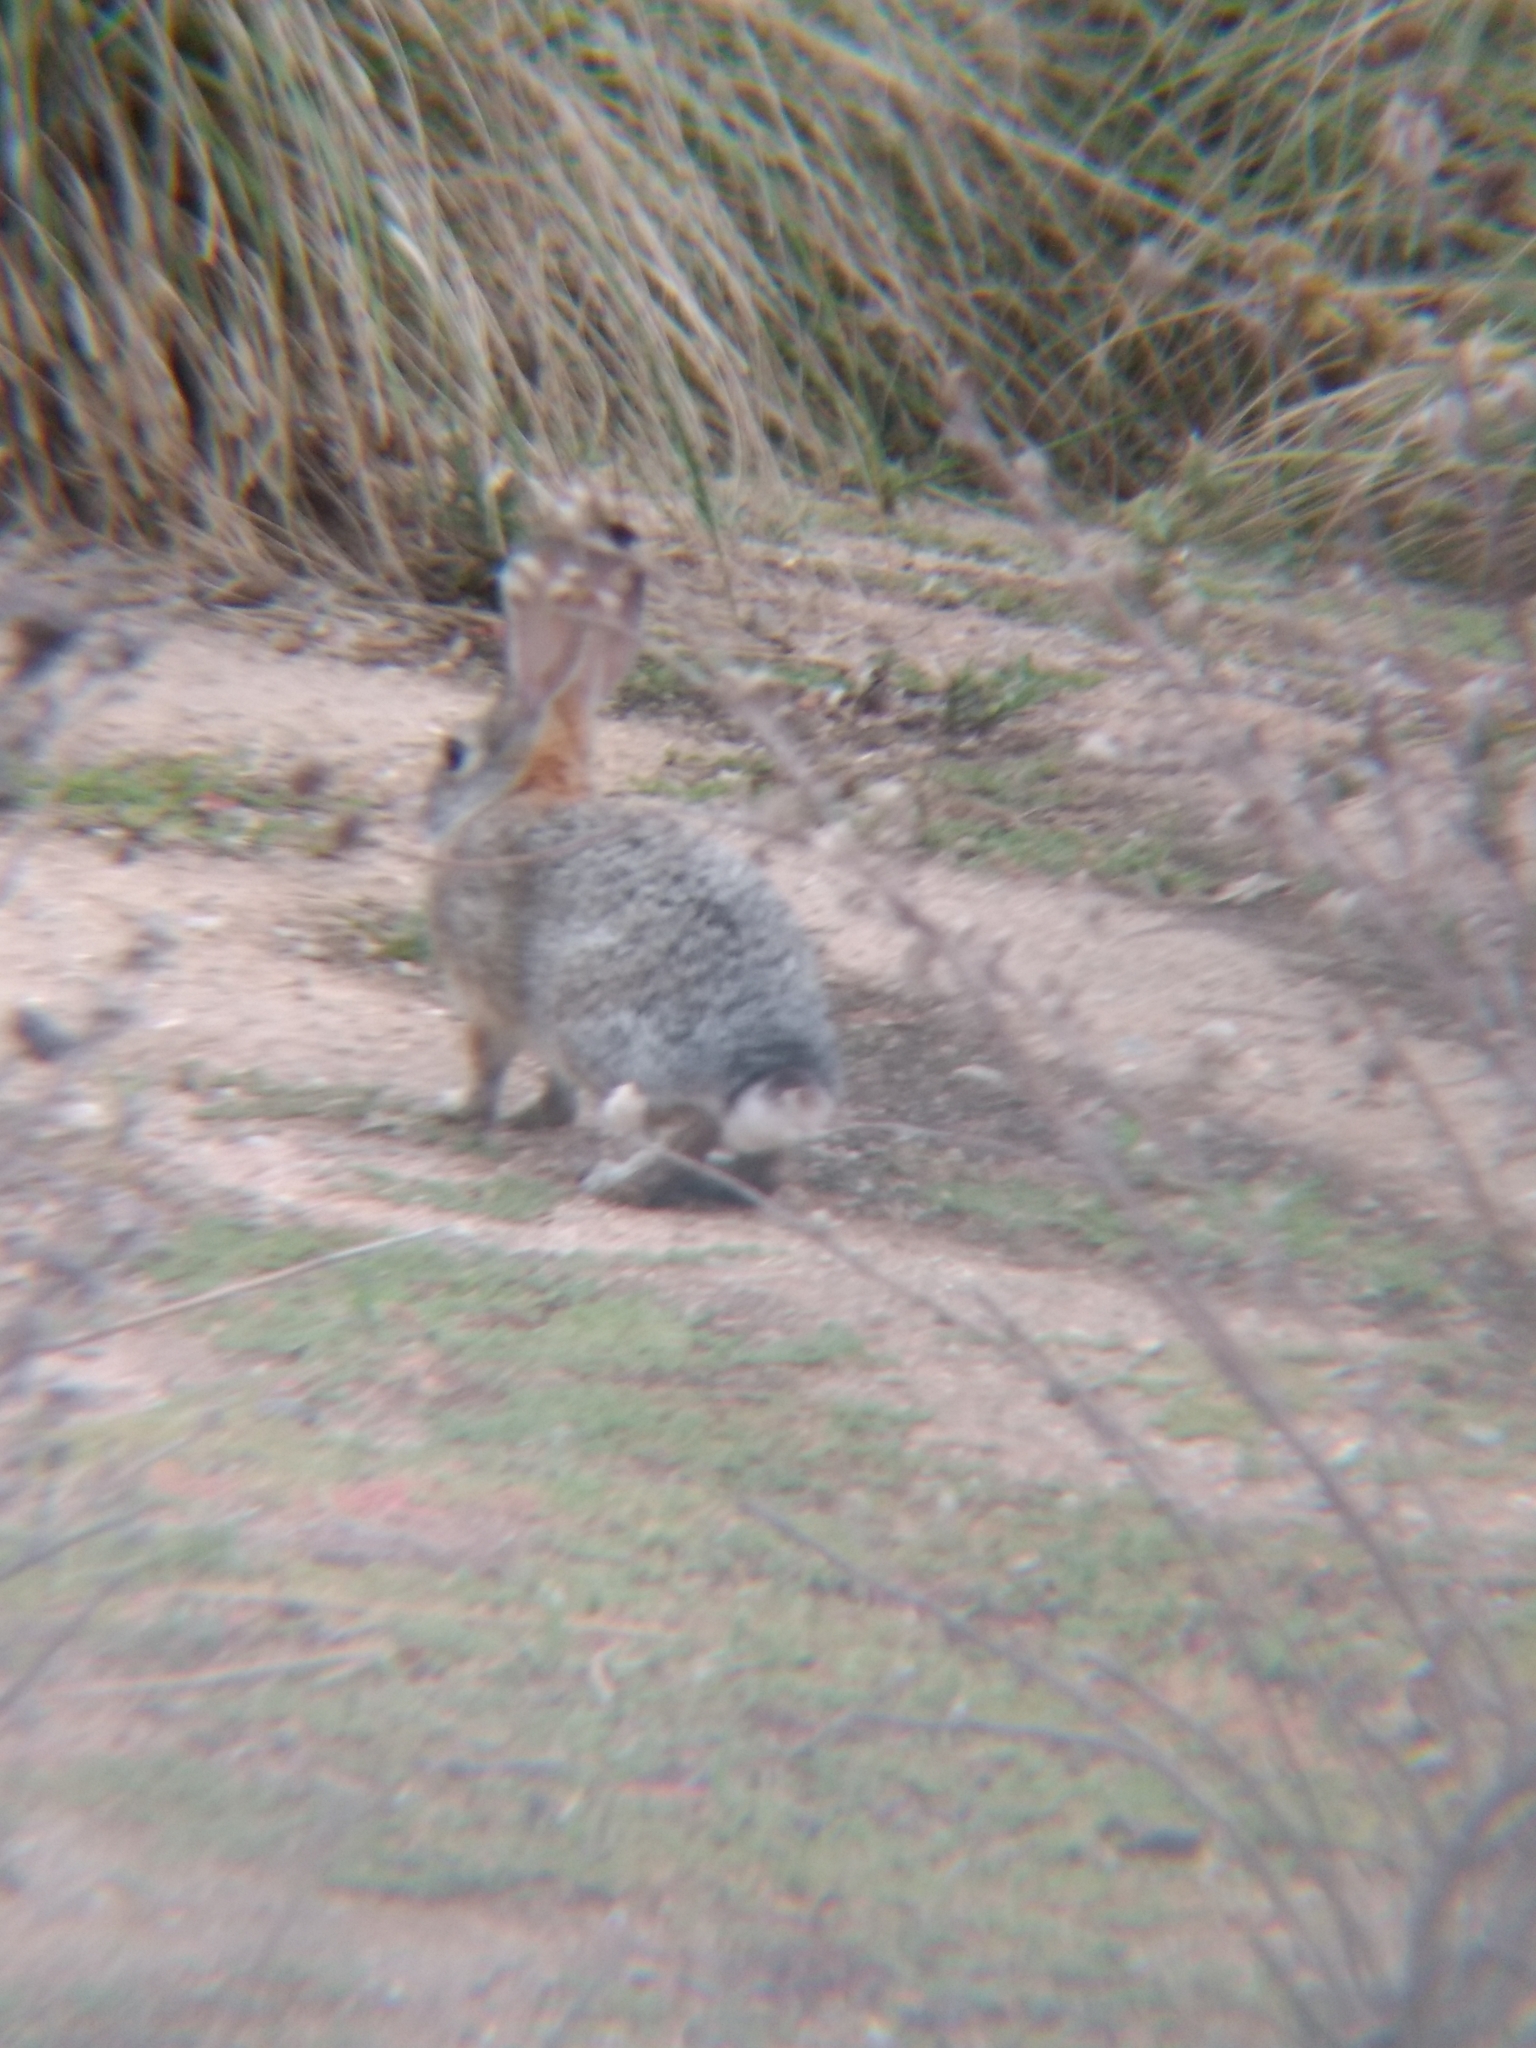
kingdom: Animalia
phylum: Chordata
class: Mammalia
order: Lagomorpha
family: Leporidae
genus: Sylvilagus
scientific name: Sylvilagus audubonii
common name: Desert cottontail
